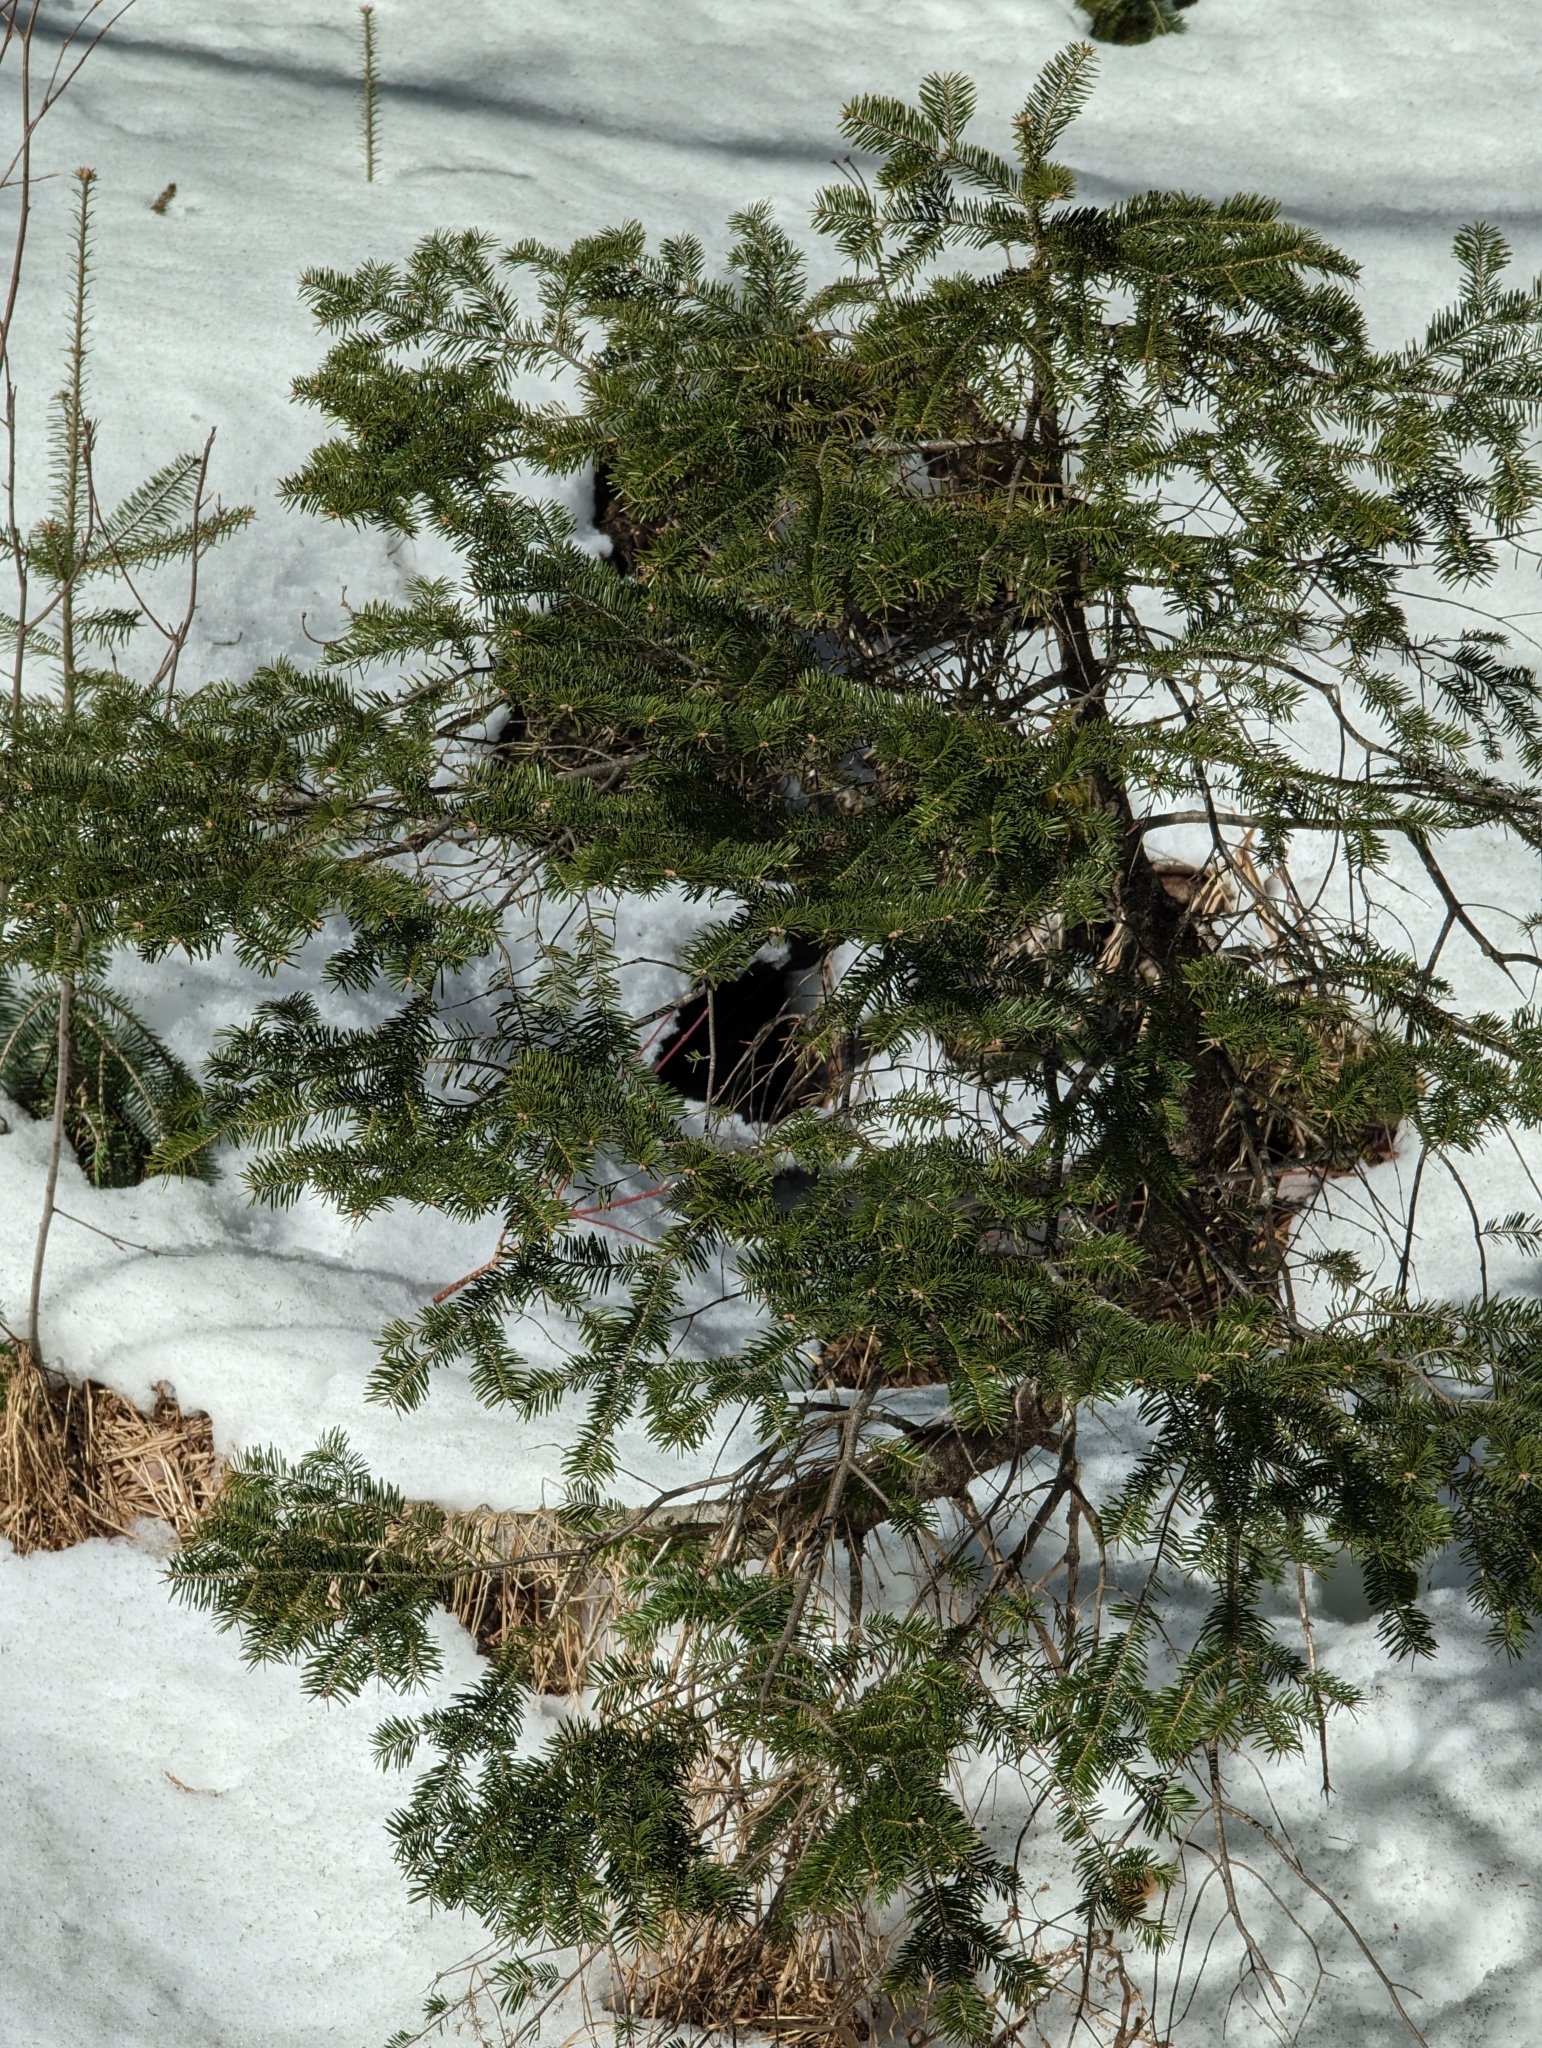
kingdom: Plantae
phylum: Tracheophyta
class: Pinopsida
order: Pinales
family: Pinaceae
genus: Abies
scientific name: Abies balsamea
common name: Balsam fir
